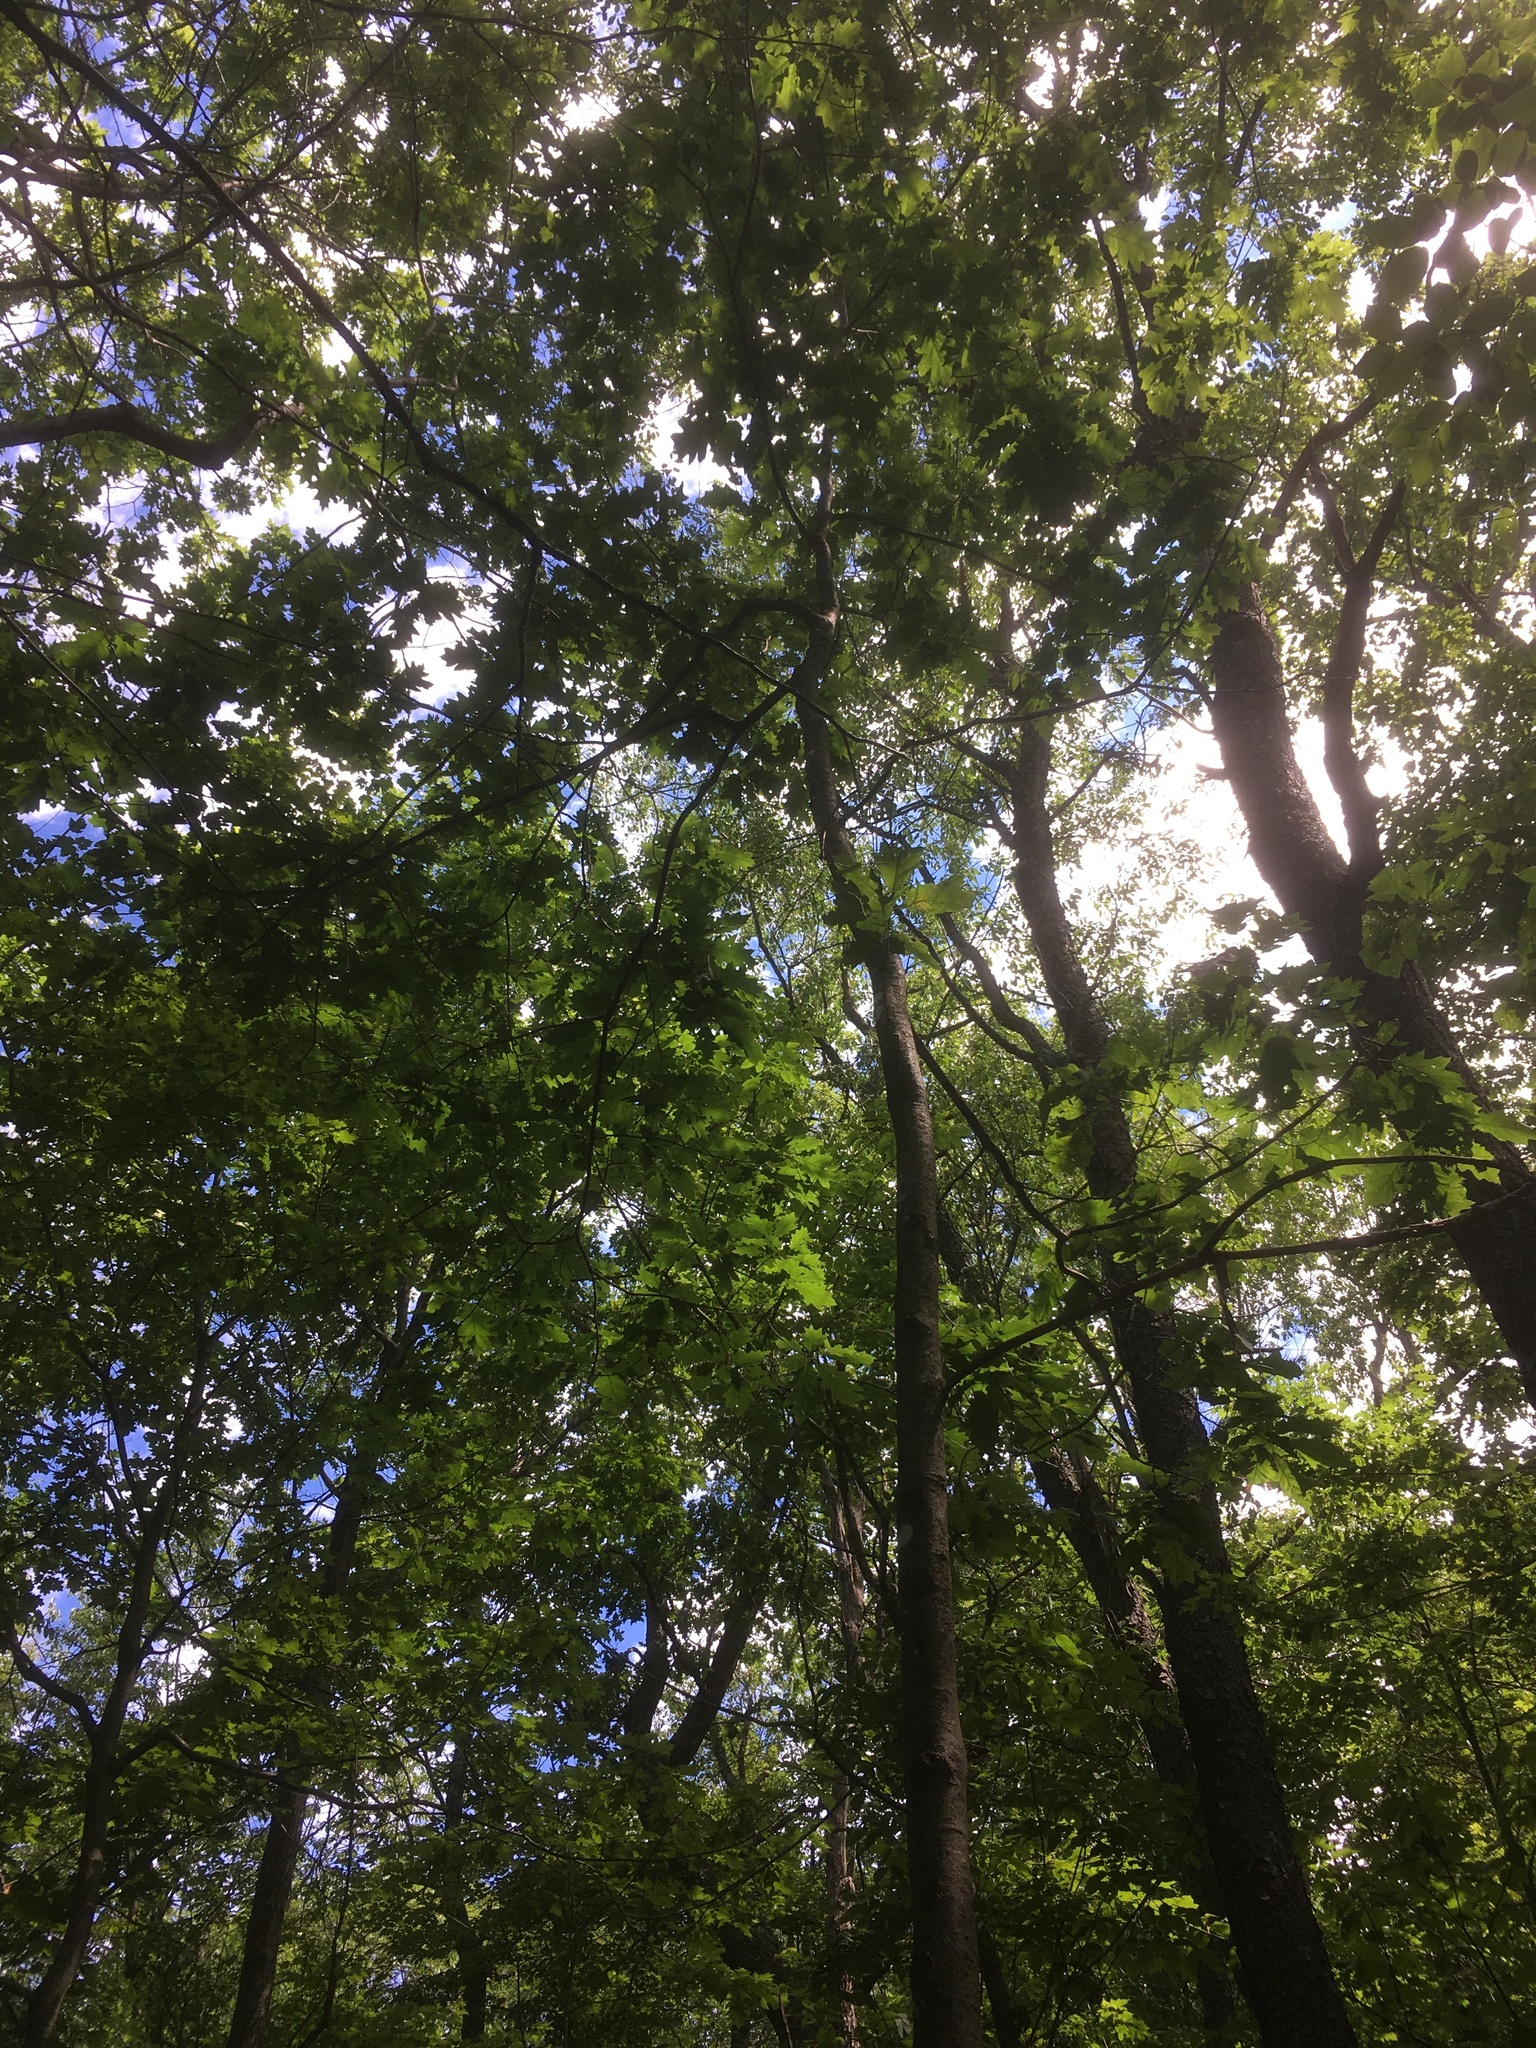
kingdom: Plantae
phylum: Tracheophyta
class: Magnoliopsida
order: Fagales
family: Fagaceae
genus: Quercus
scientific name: Quercus rubra
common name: Red oak
